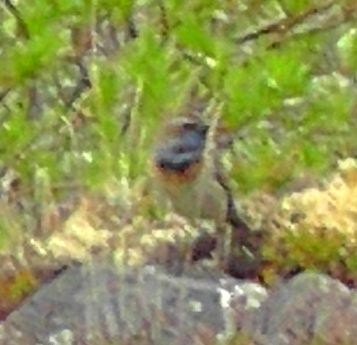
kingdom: Animalia
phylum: Chordata
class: Aves
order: Passeriformes
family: Muscicapidae
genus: Luscinia
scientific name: Luscinia svecica
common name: Bluethroat
